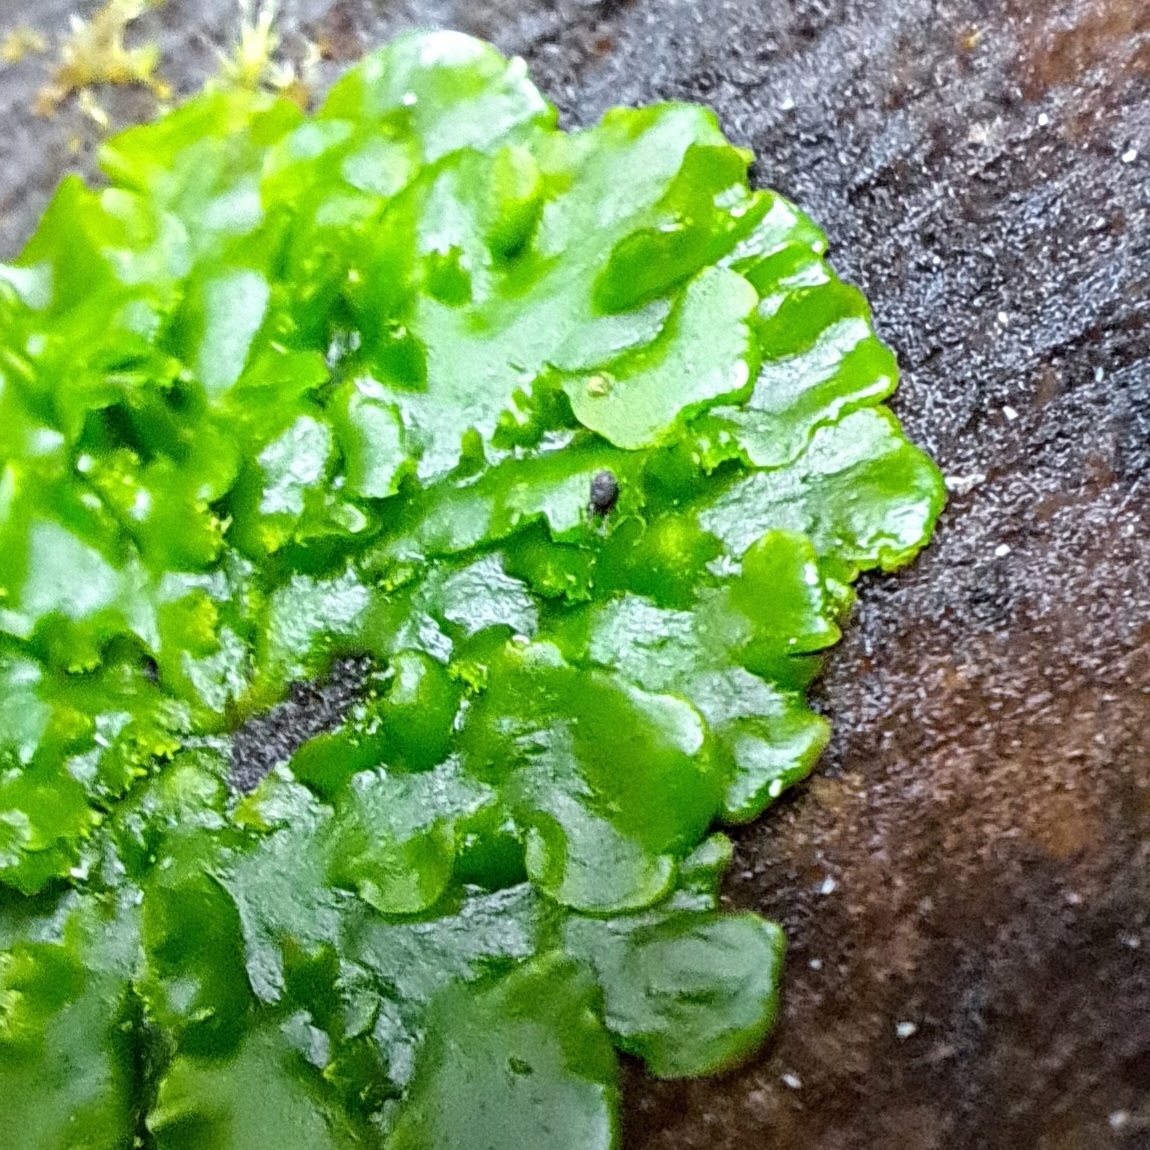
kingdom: Plantae
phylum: Marchantiophyta
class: Jungermanniopsida
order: Metzgeriales
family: Aneuraceae
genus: Aneura
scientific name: Aneura pinguis
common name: Common greasewort
